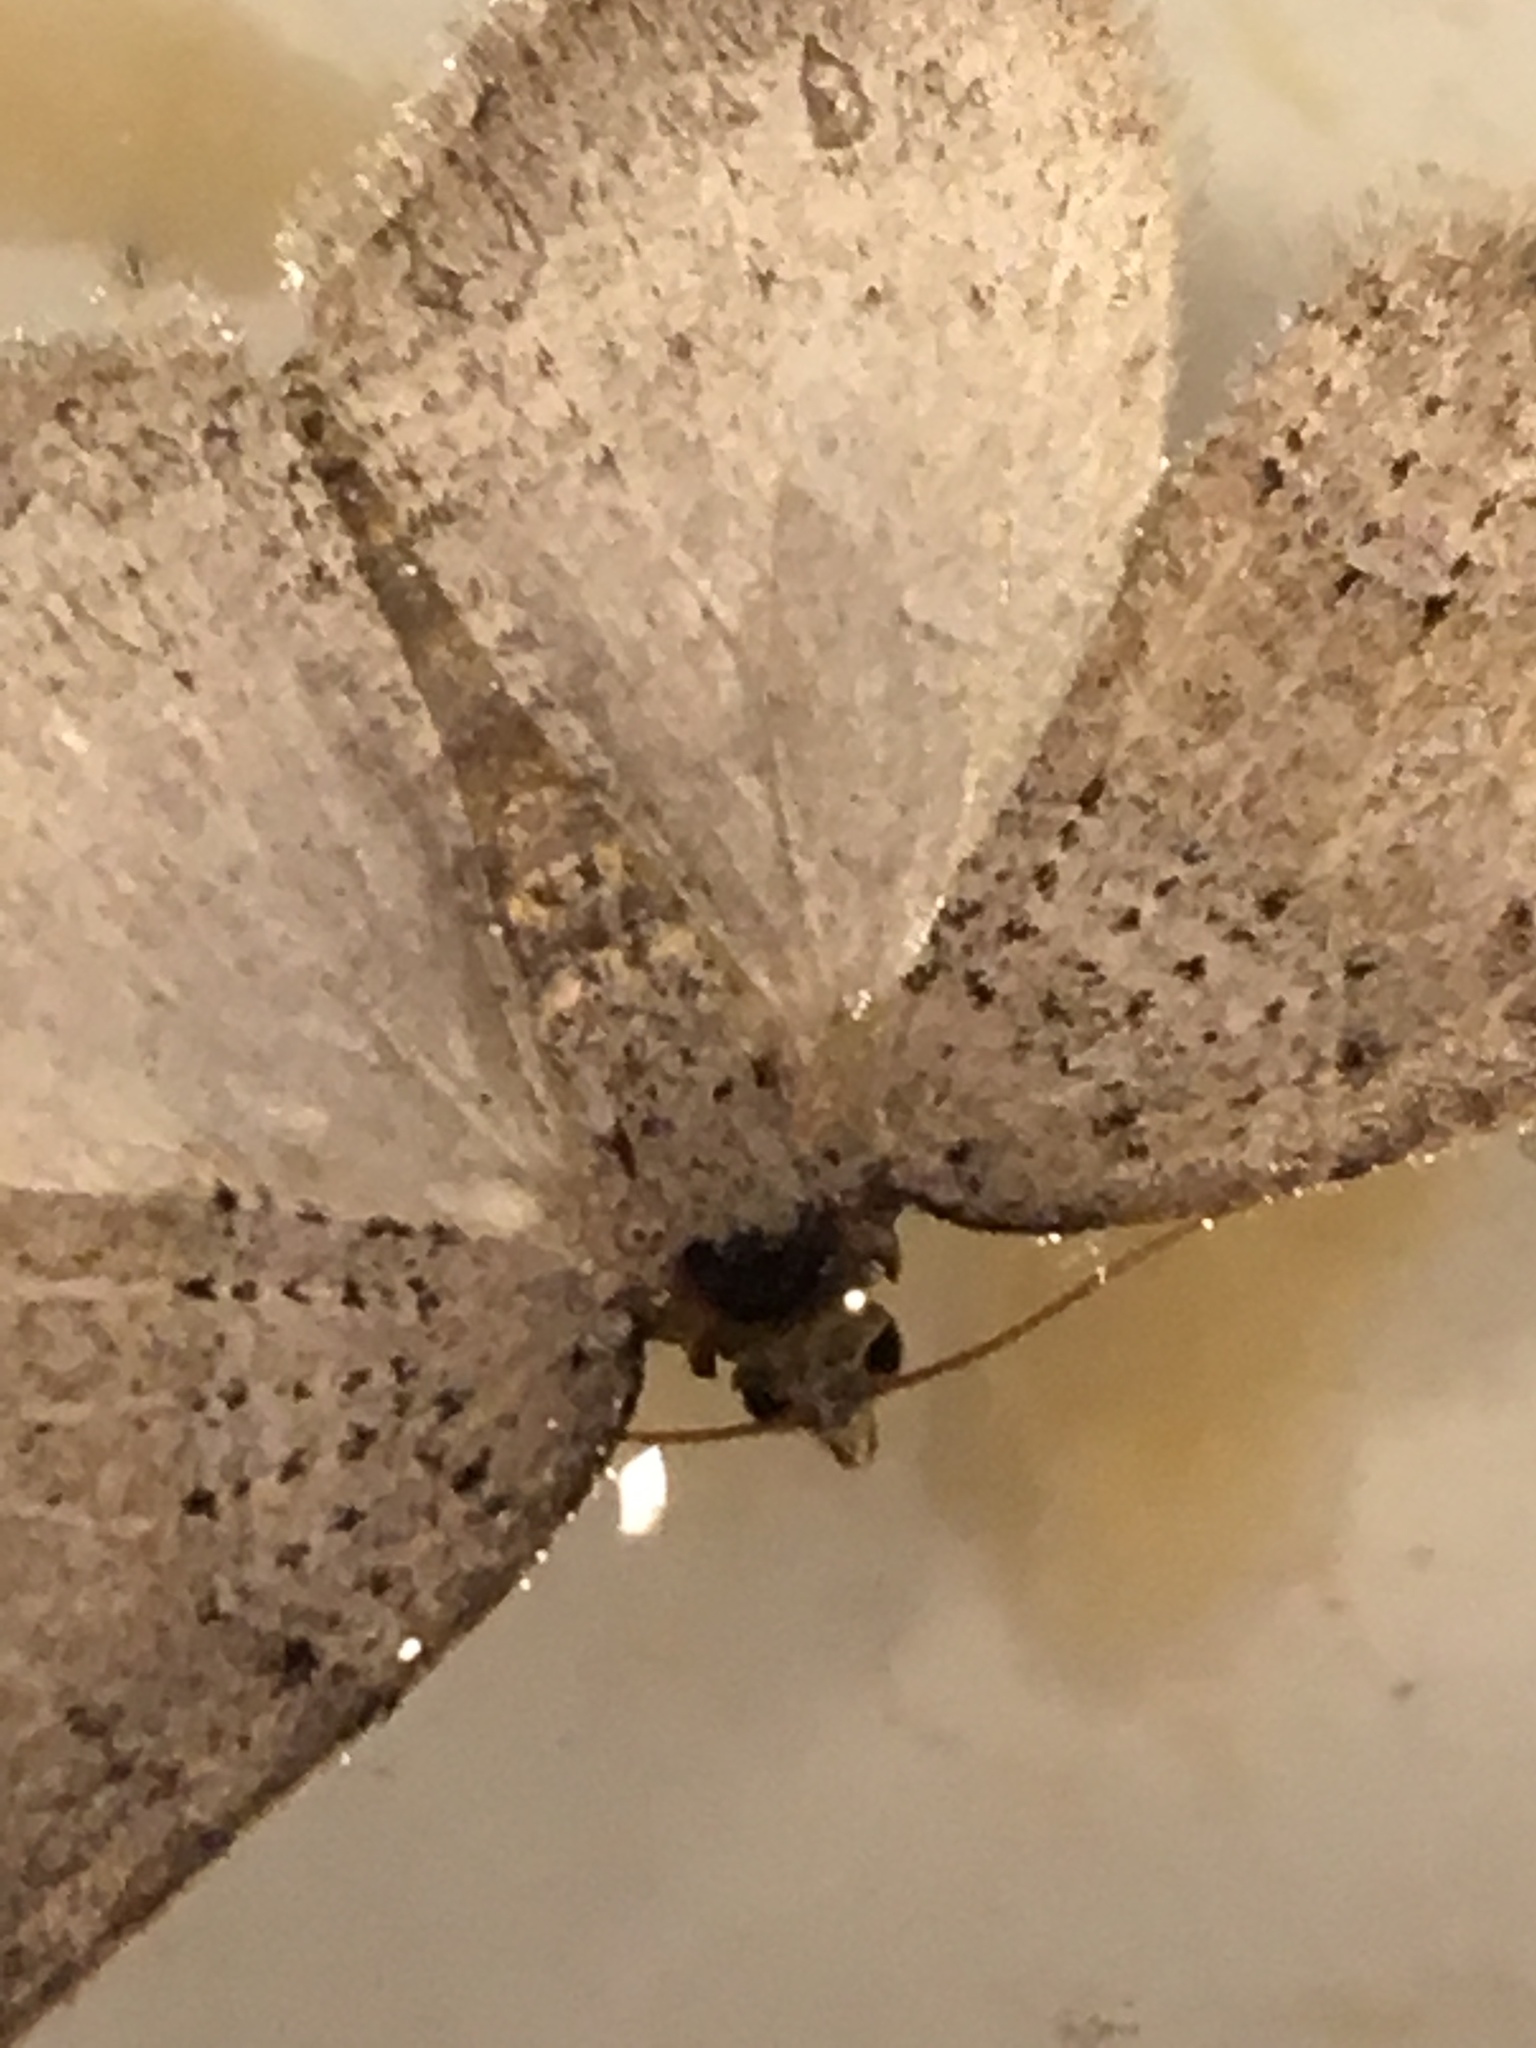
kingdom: Animalia
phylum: Arthropoda
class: Insecta
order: Lepidoptera
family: Geometridae
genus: Zenophleps
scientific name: Zenophleps lignicolorata
